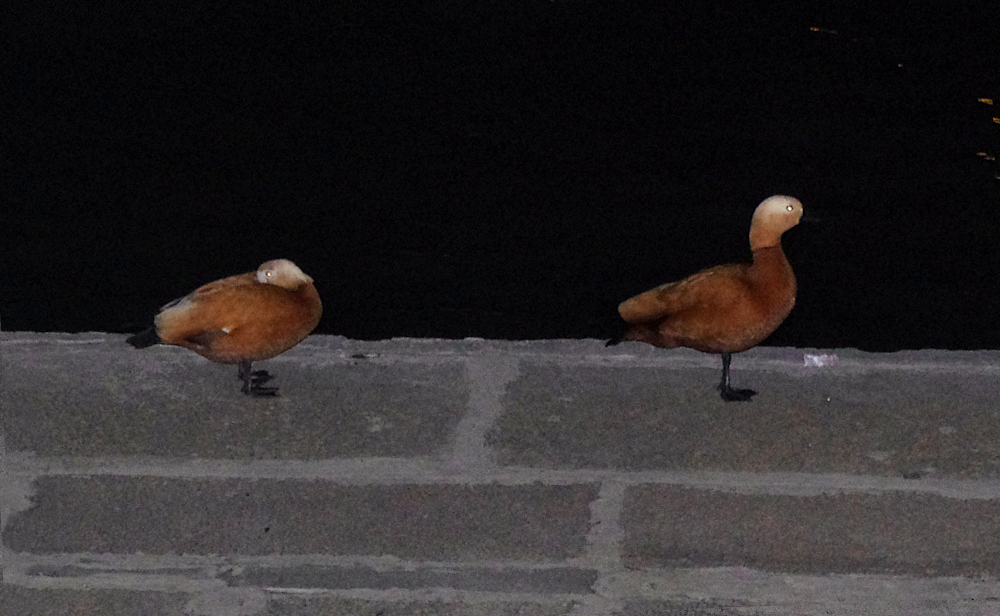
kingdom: Animalia
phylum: Chordata
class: Aves
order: Anseriformes
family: Anatidae
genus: Tadorna
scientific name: Tadorna ferruginea
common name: Ruddy shelduck
